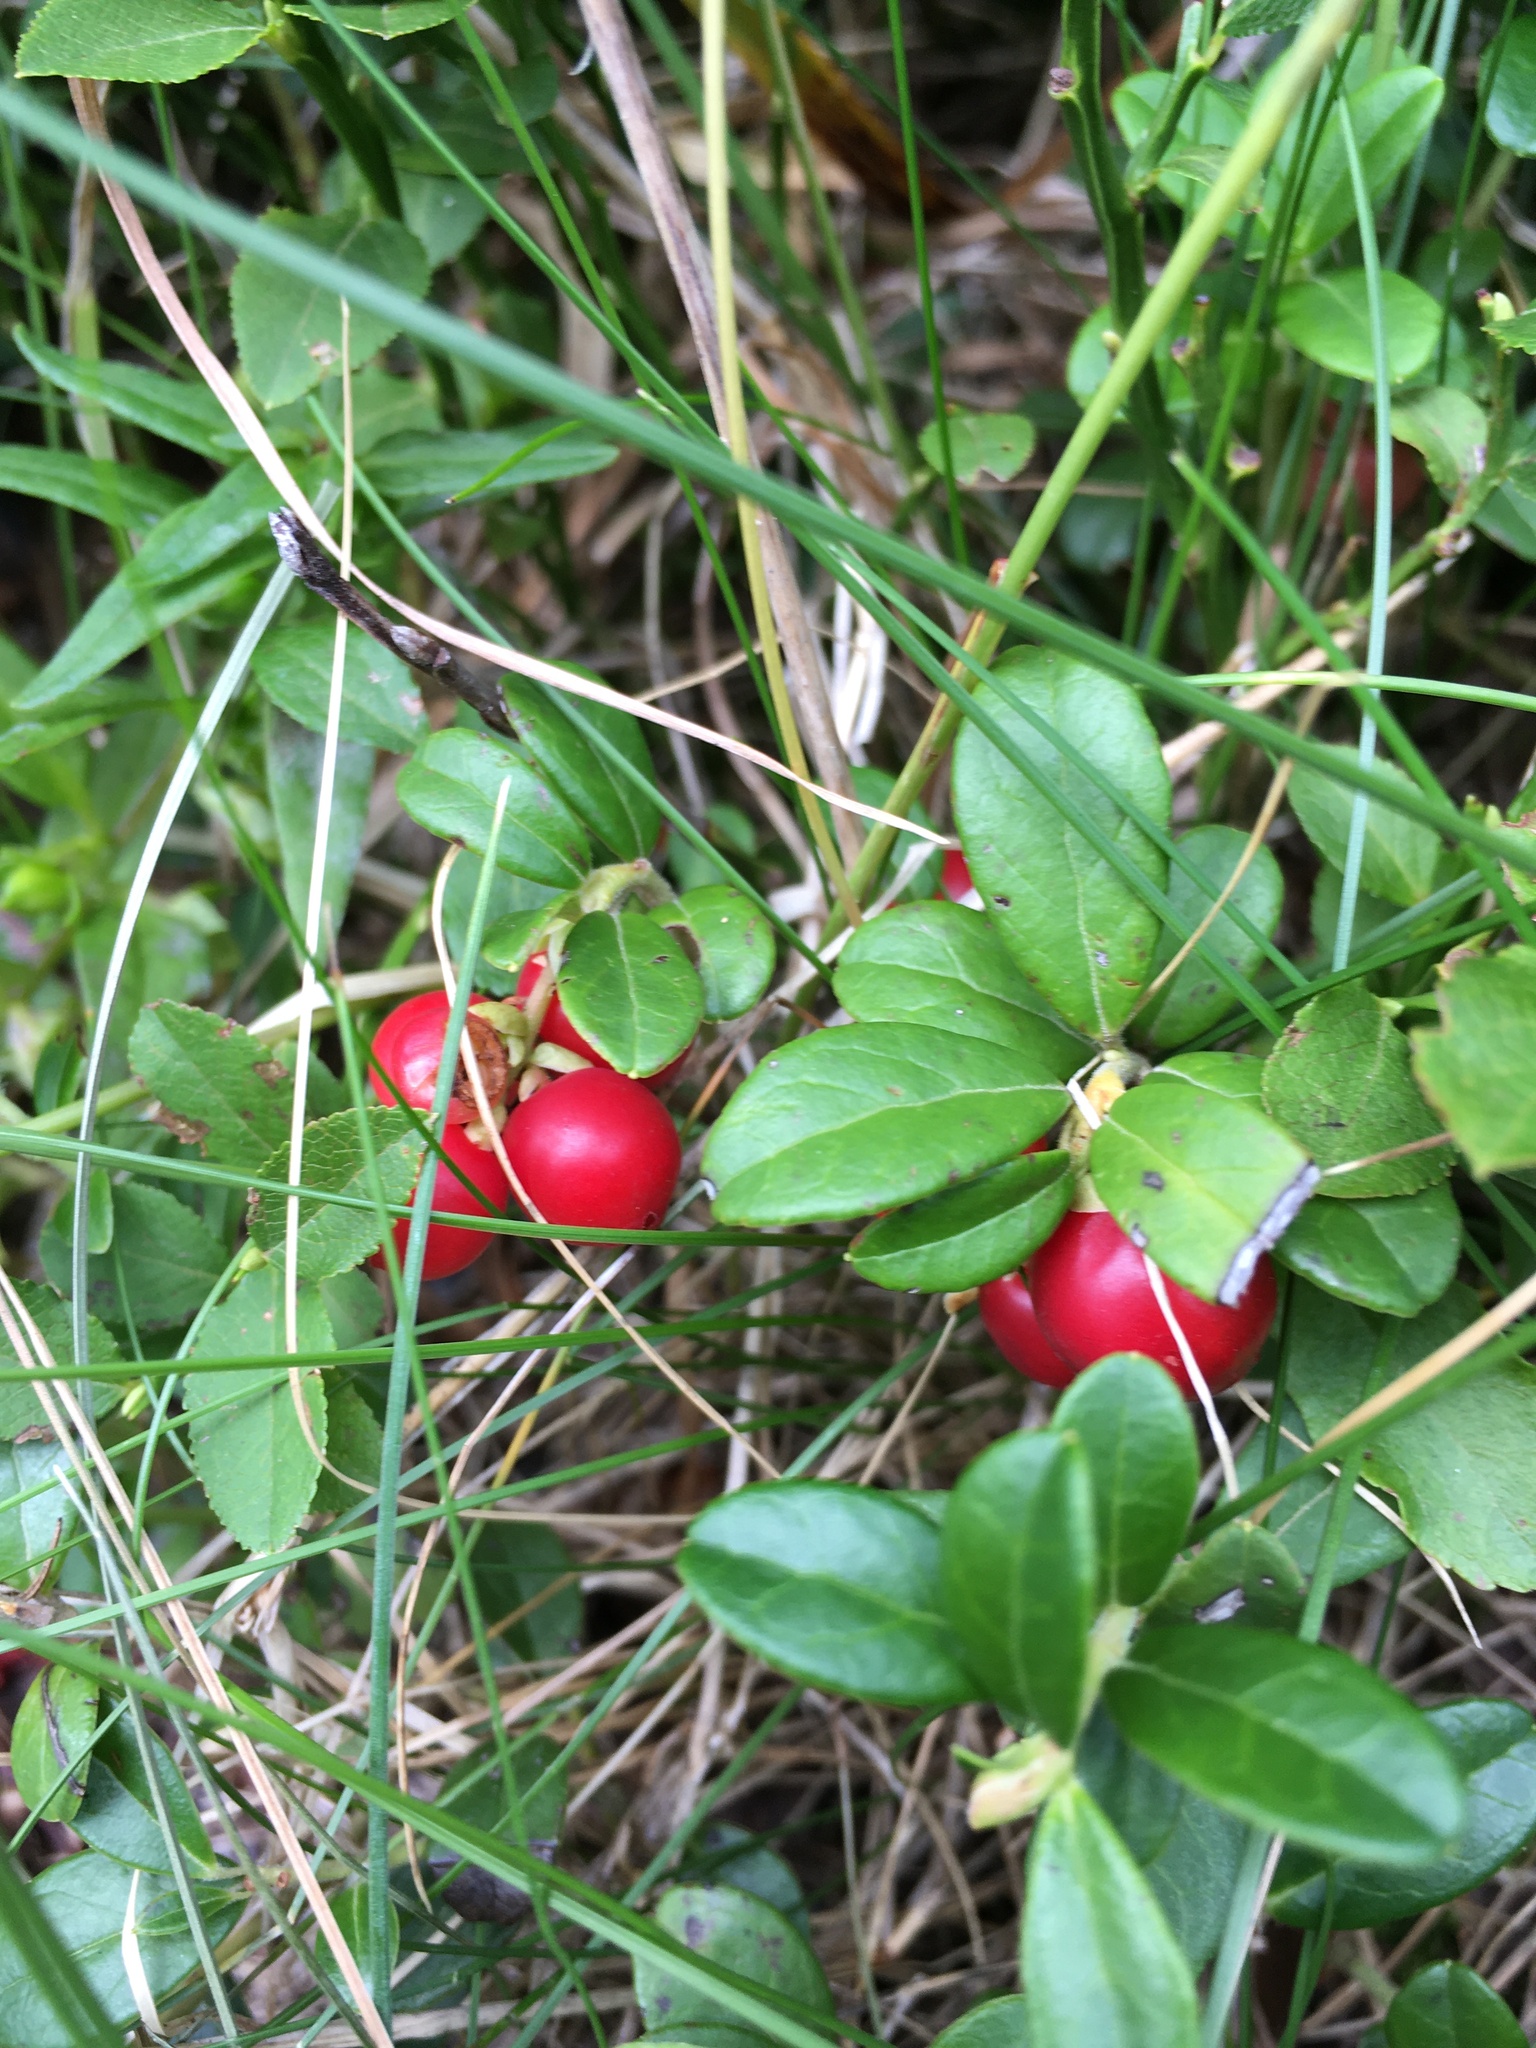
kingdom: Plantae
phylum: Tracheophyta
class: Magnoliopsida
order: Ericales
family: Ericaceae
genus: Vaccinium
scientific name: Vaccinium vitis-idaea
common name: Cowberry
